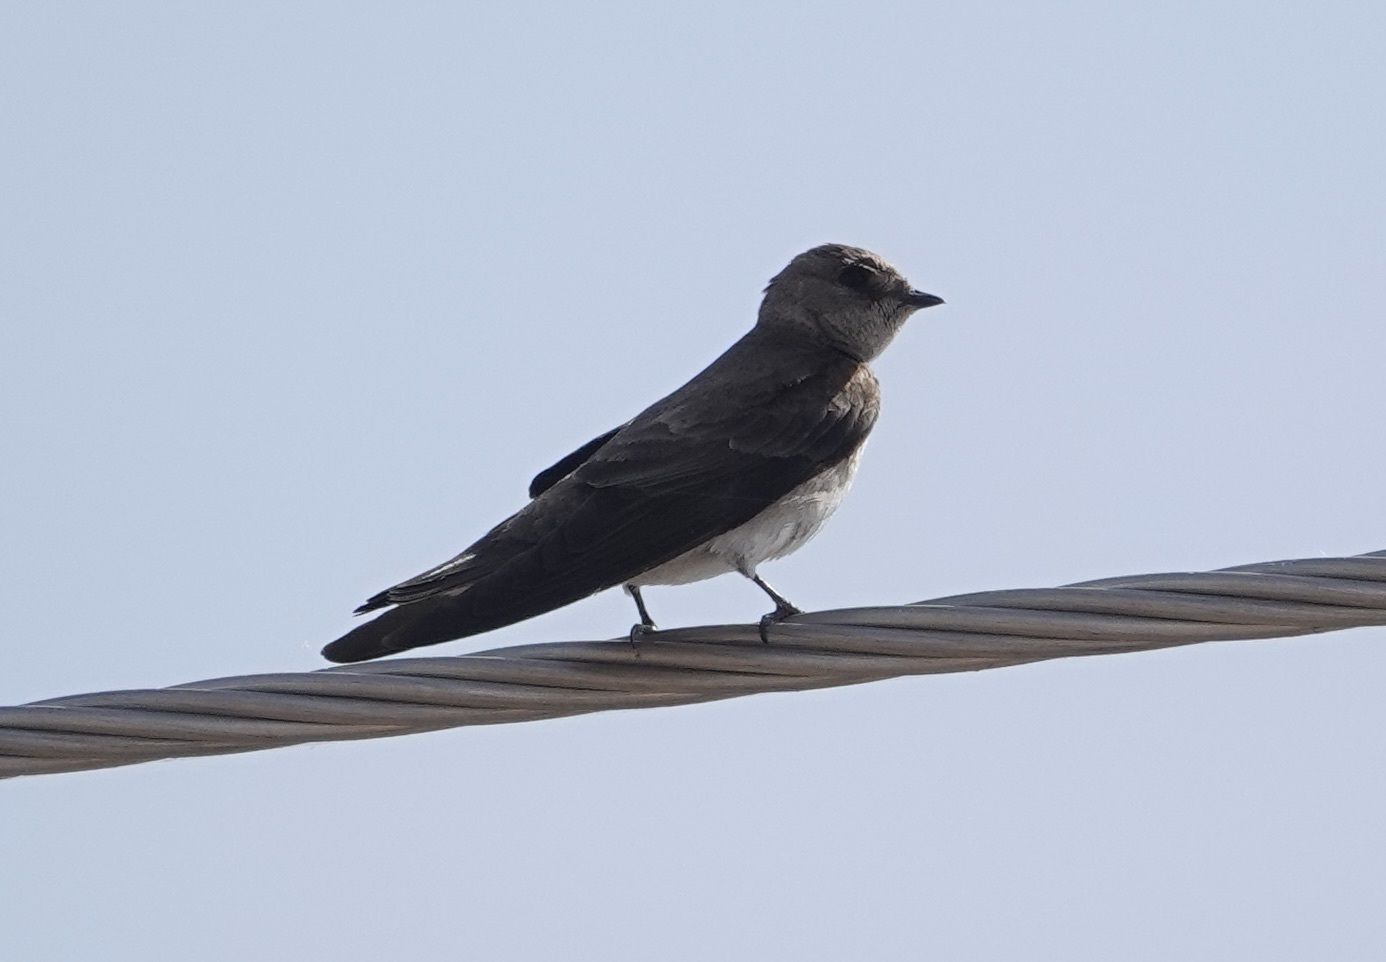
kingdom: Animalia
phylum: Chordata
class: Aves
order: Passeriformes
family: Hirundinidae
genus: Stelgidopteryx
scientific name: Stelgidopteryx serripennis
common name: Northern rough-winged swallow
